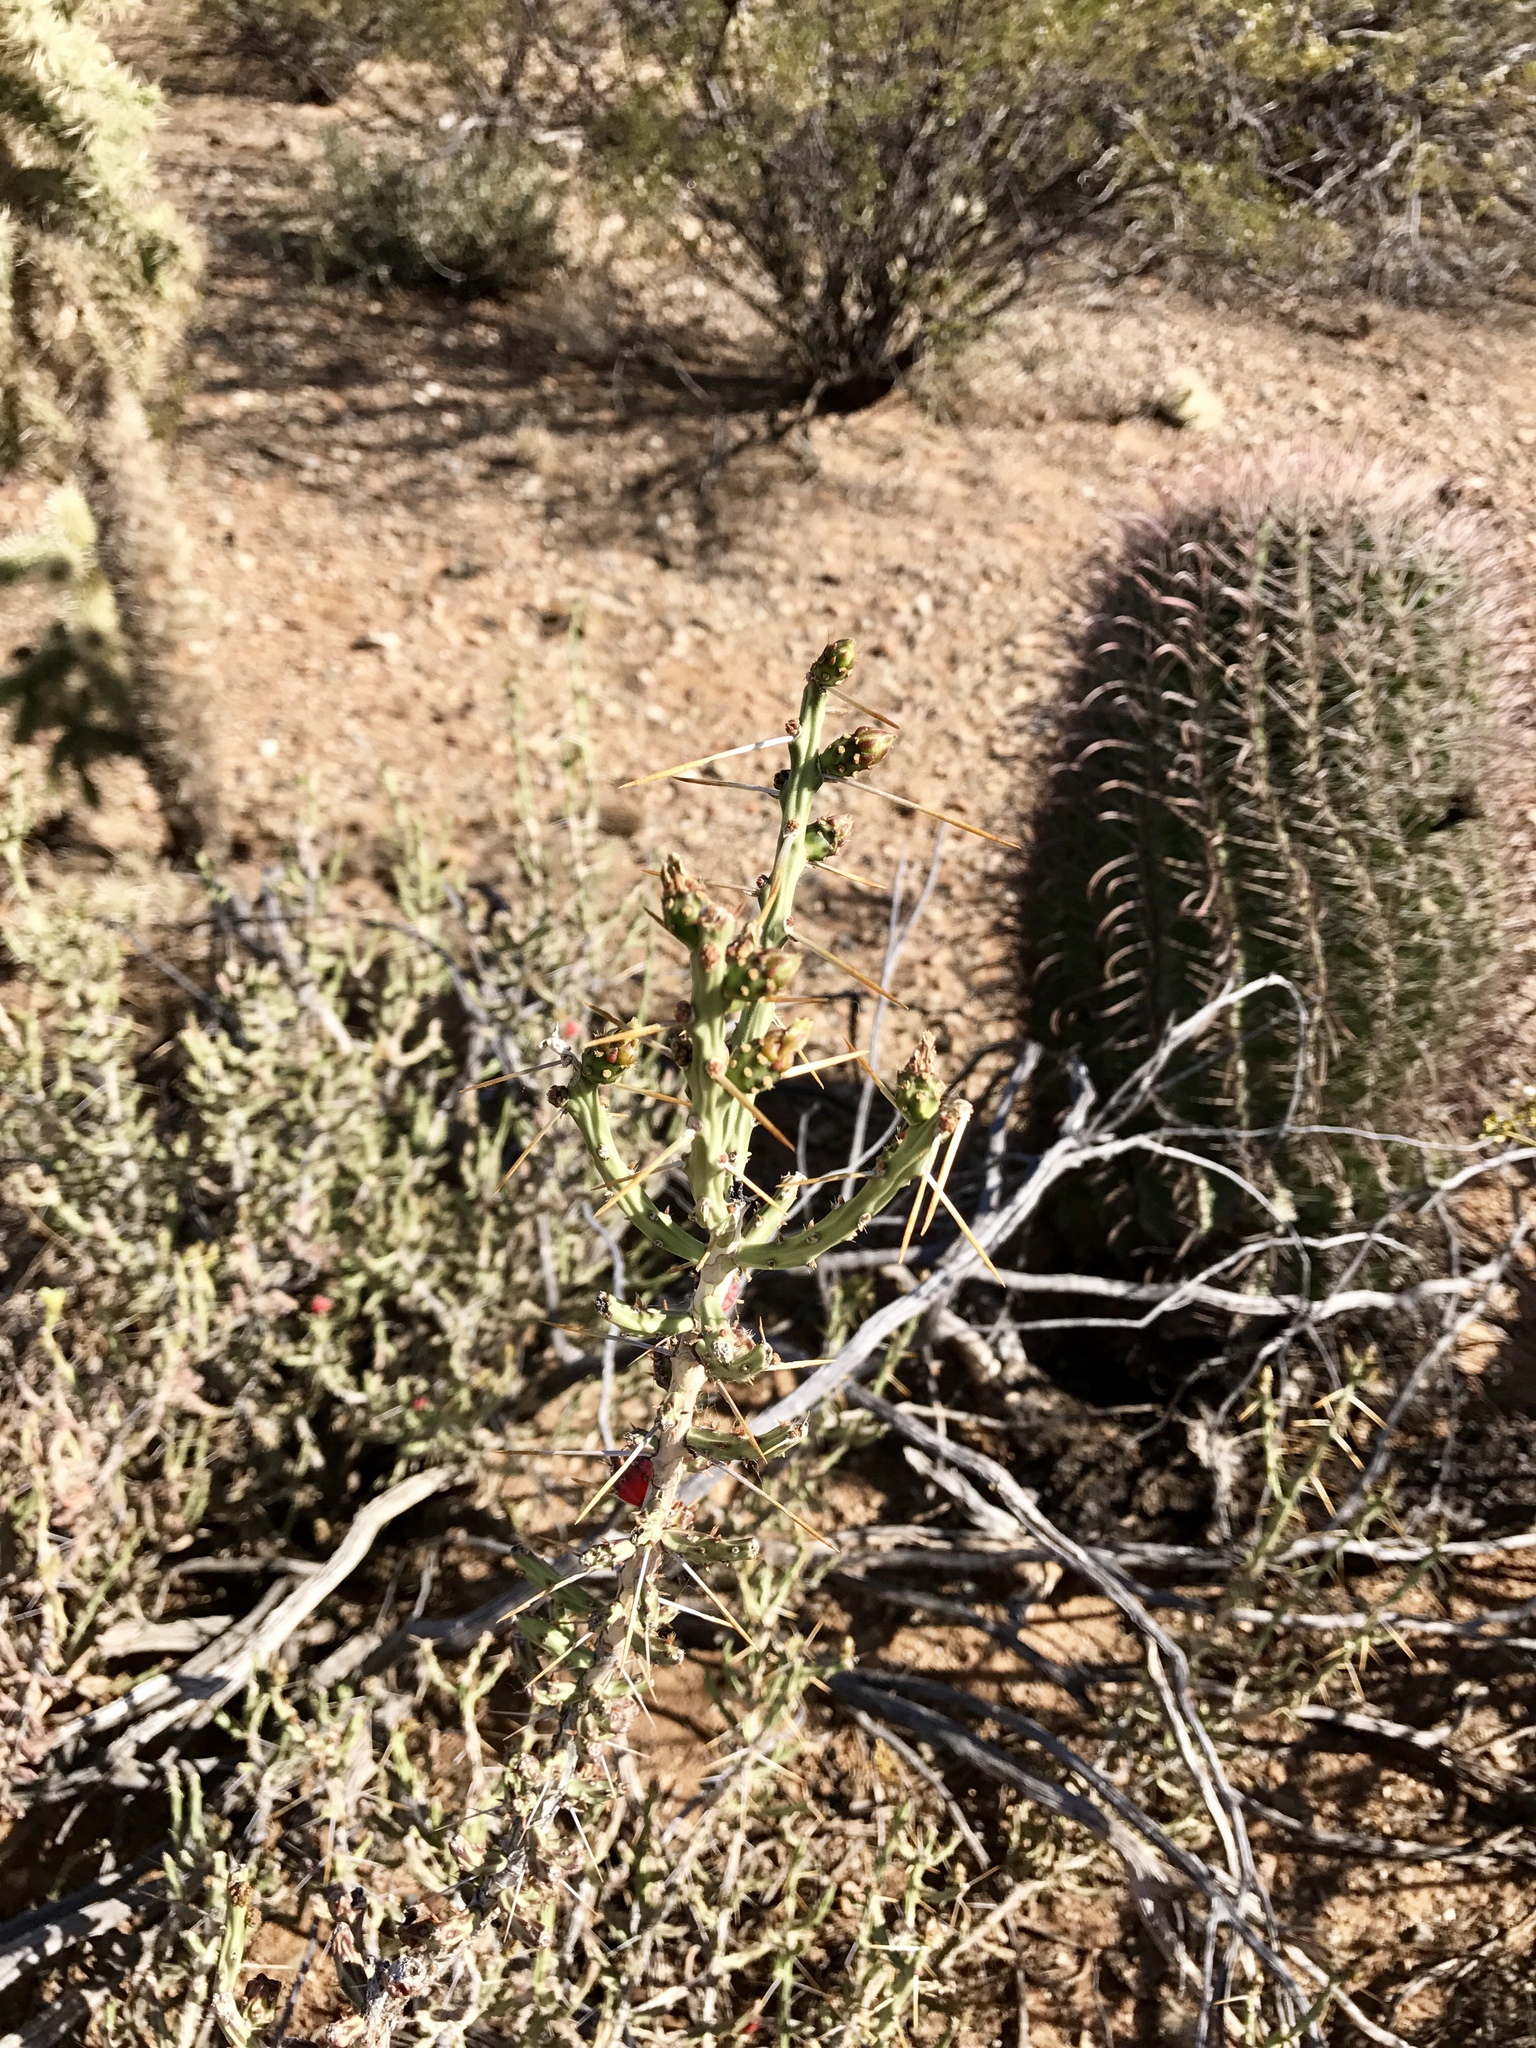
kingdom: Plantae
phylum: Tracheophyta
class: Magnoliopsida
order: Caryophyllales
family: Cactaceae
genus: Ferocactus
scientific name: Ferocactus wislizeni
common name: Candy barrel cactus
